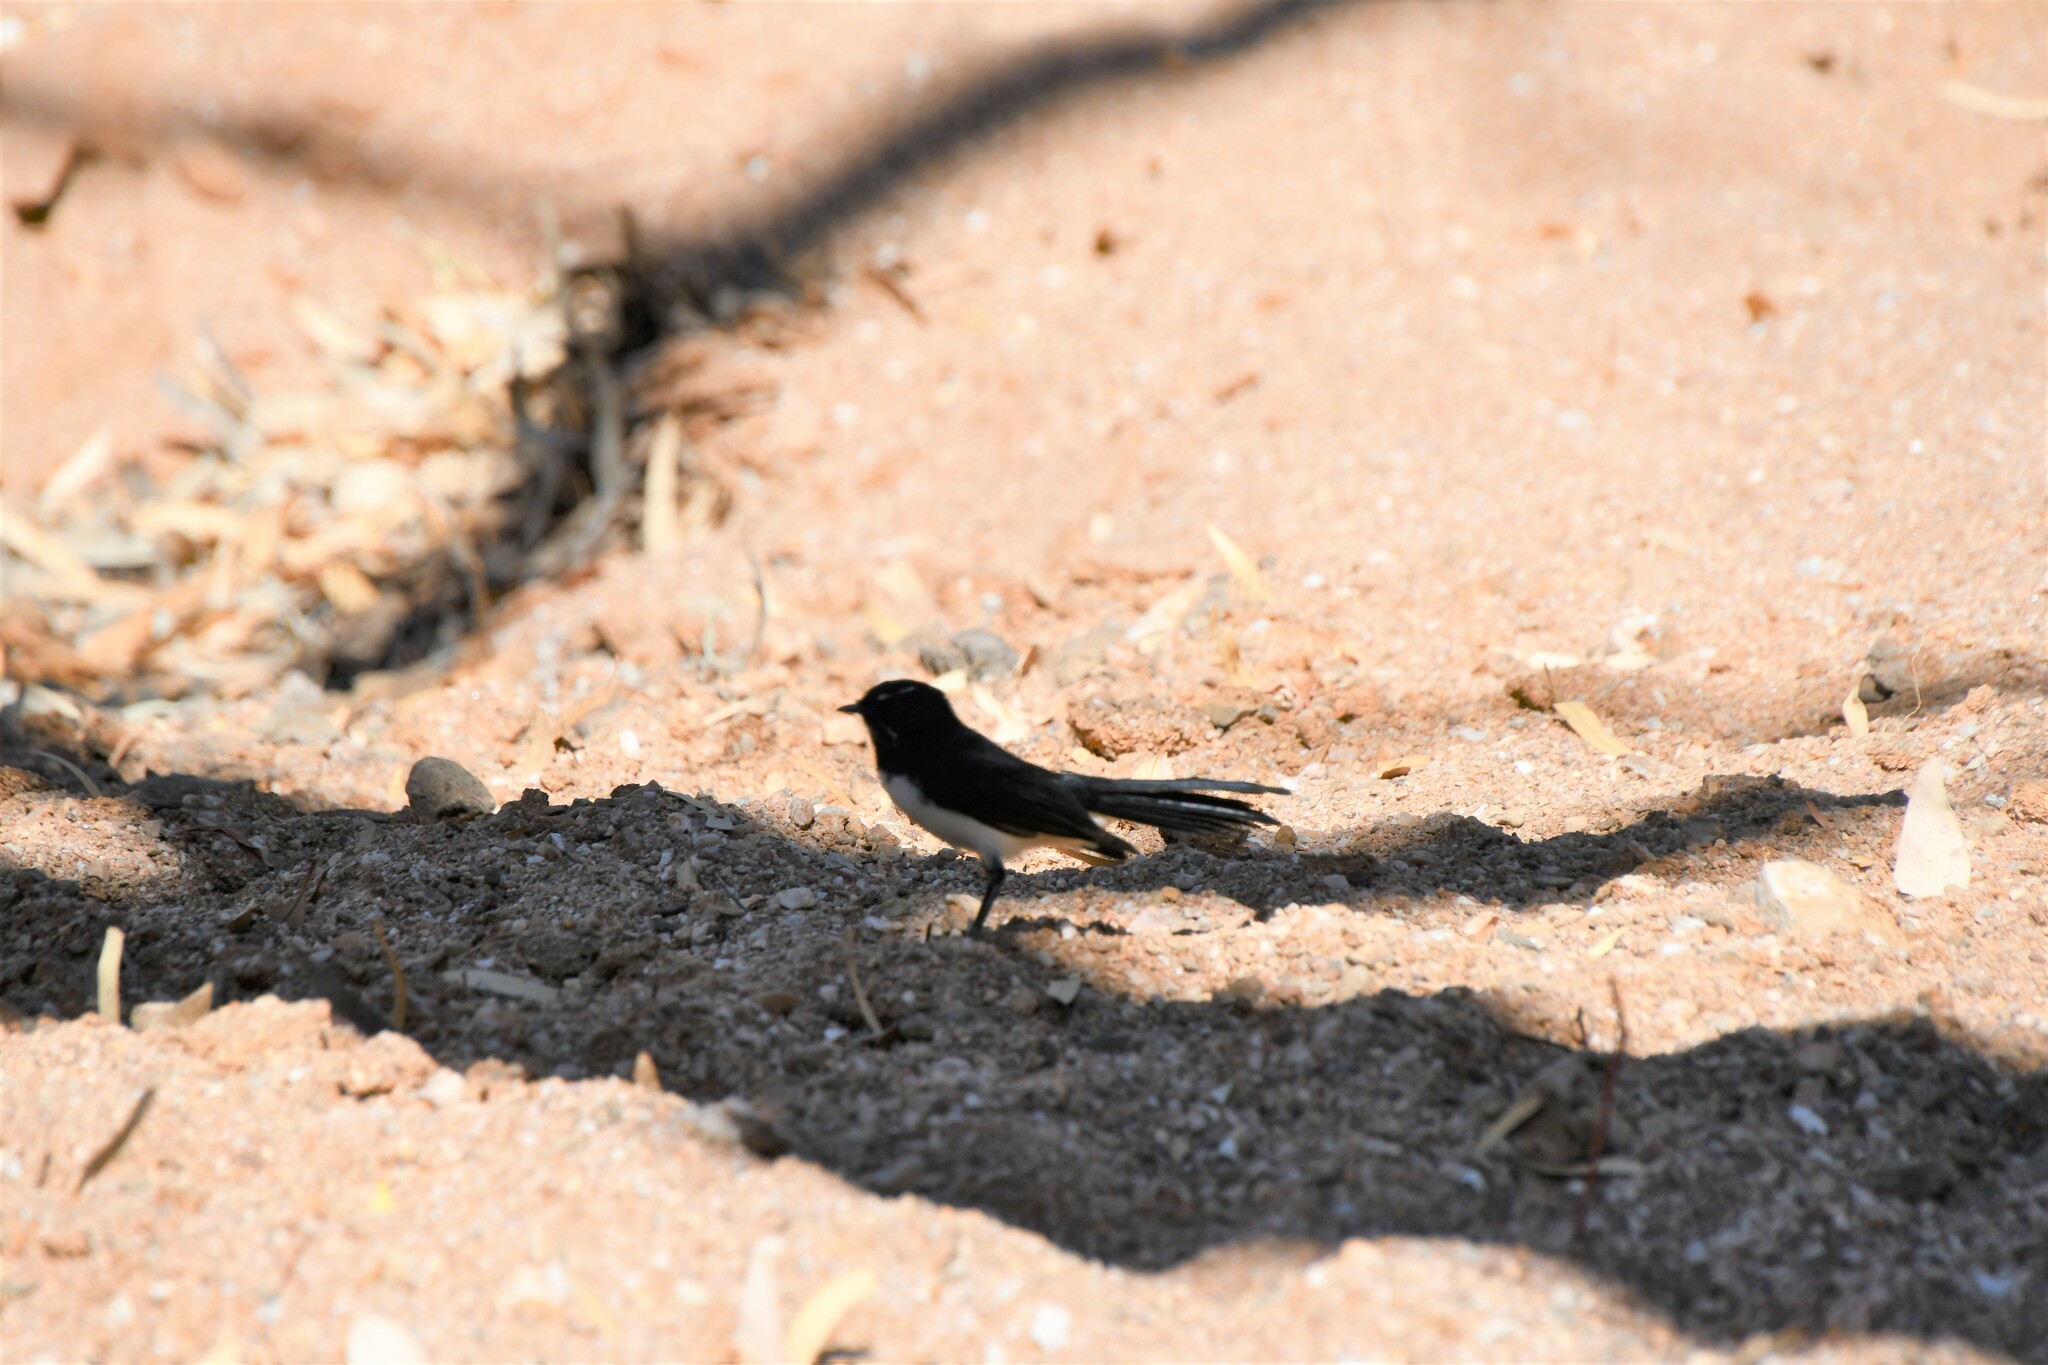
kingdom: Animalia
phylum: Chordata
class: Aves
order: Passeriformes
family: Rhipiduridae
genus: Rhipidura
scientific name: Rhipidura leucophrys
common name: Willie wagtail
